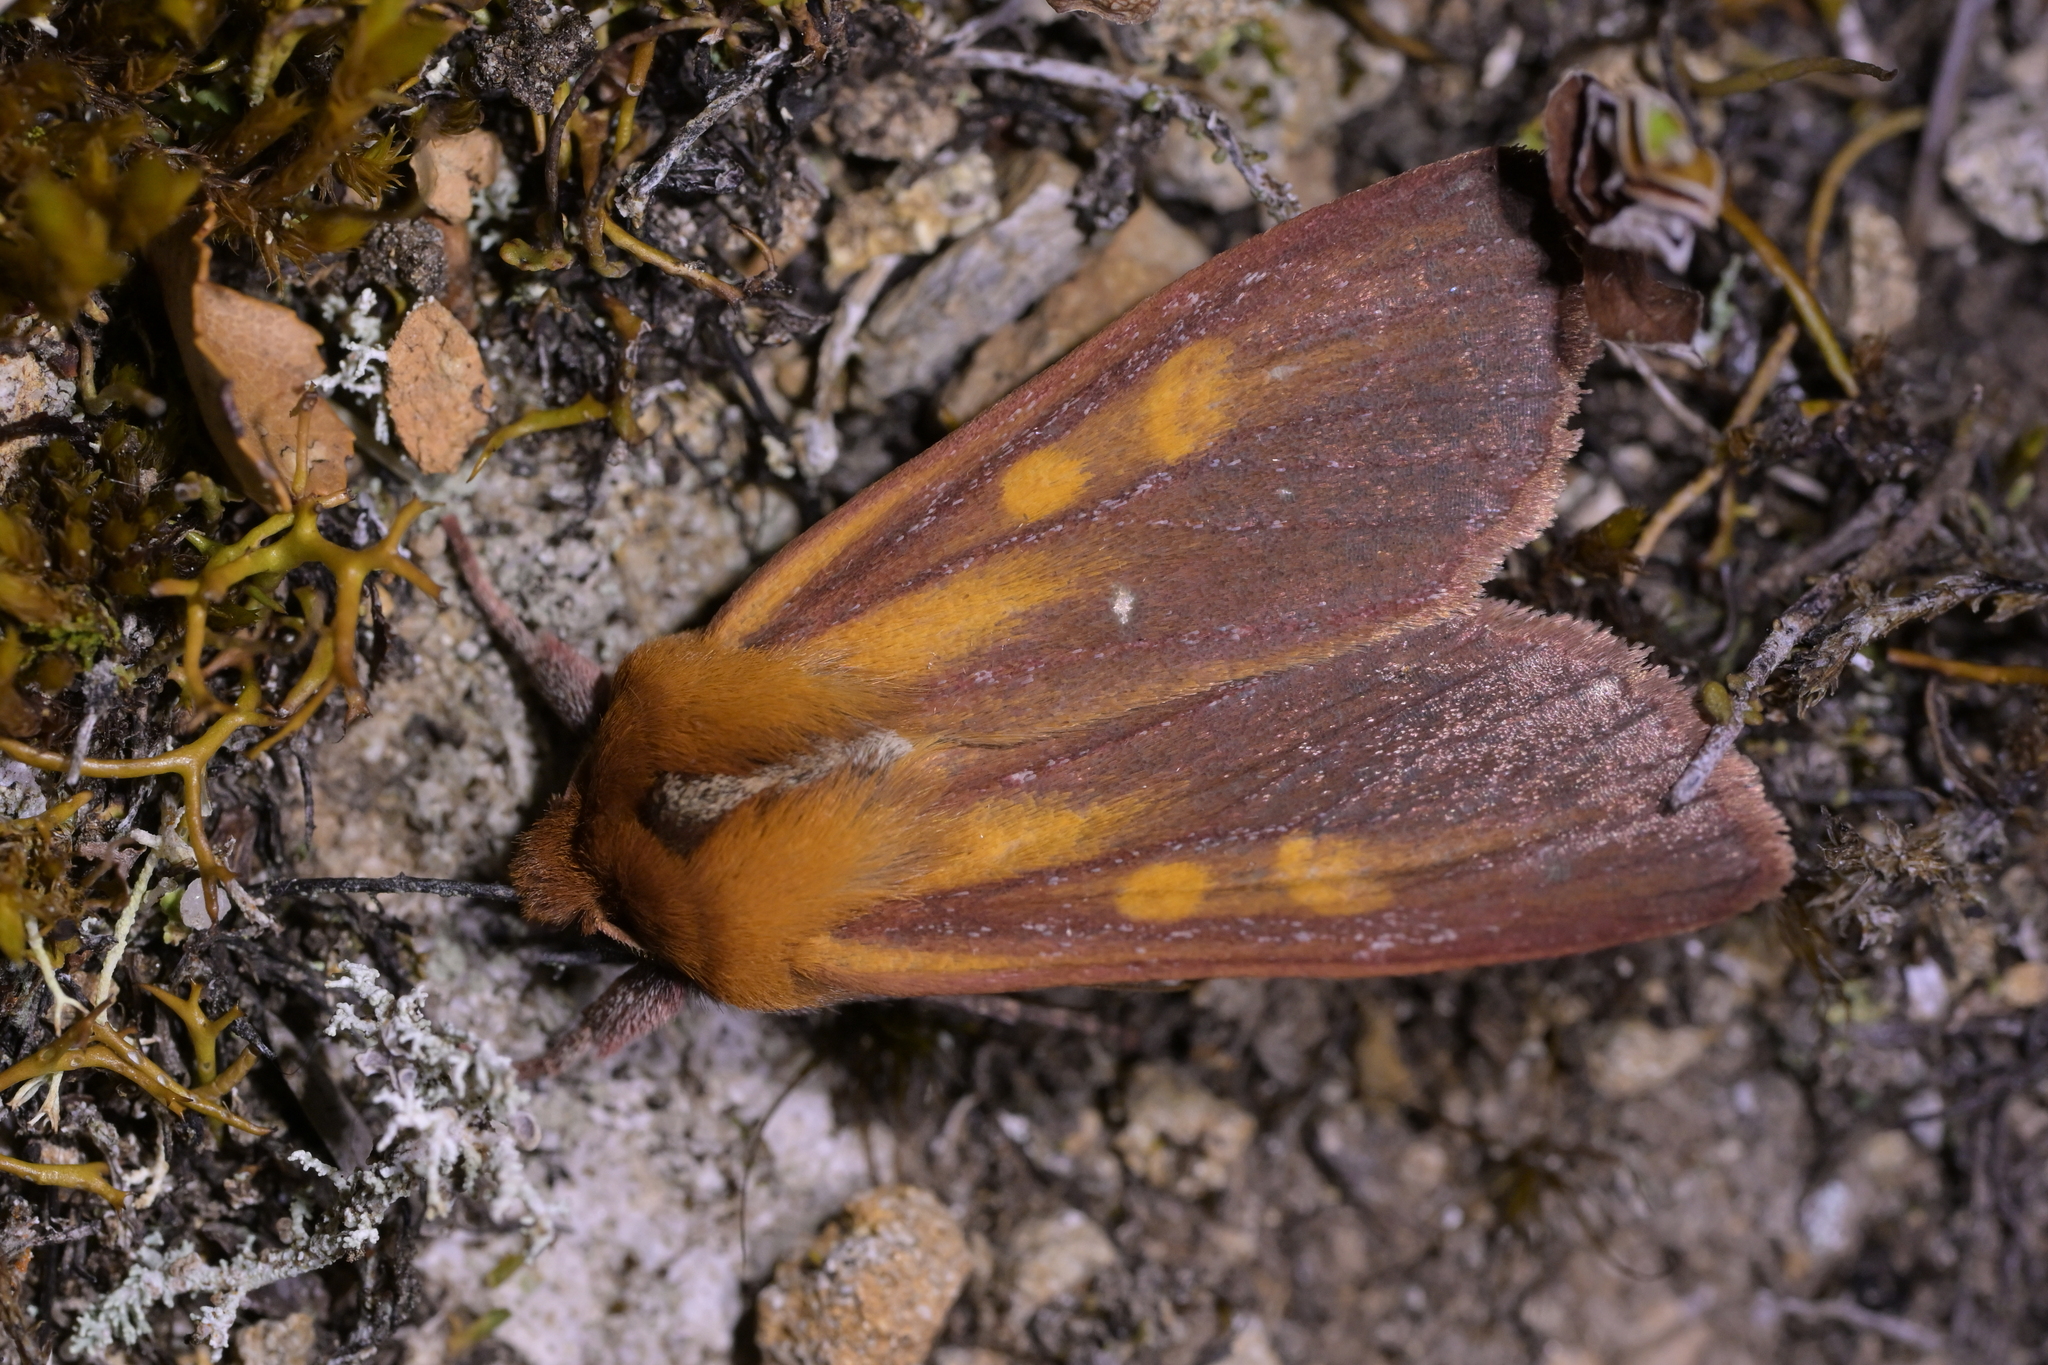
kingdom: Animalia
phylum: Arthropoda
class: Insecta
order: Lepidoptera
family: Noctuidae
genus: Ichneutica
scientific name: Ichneutica
